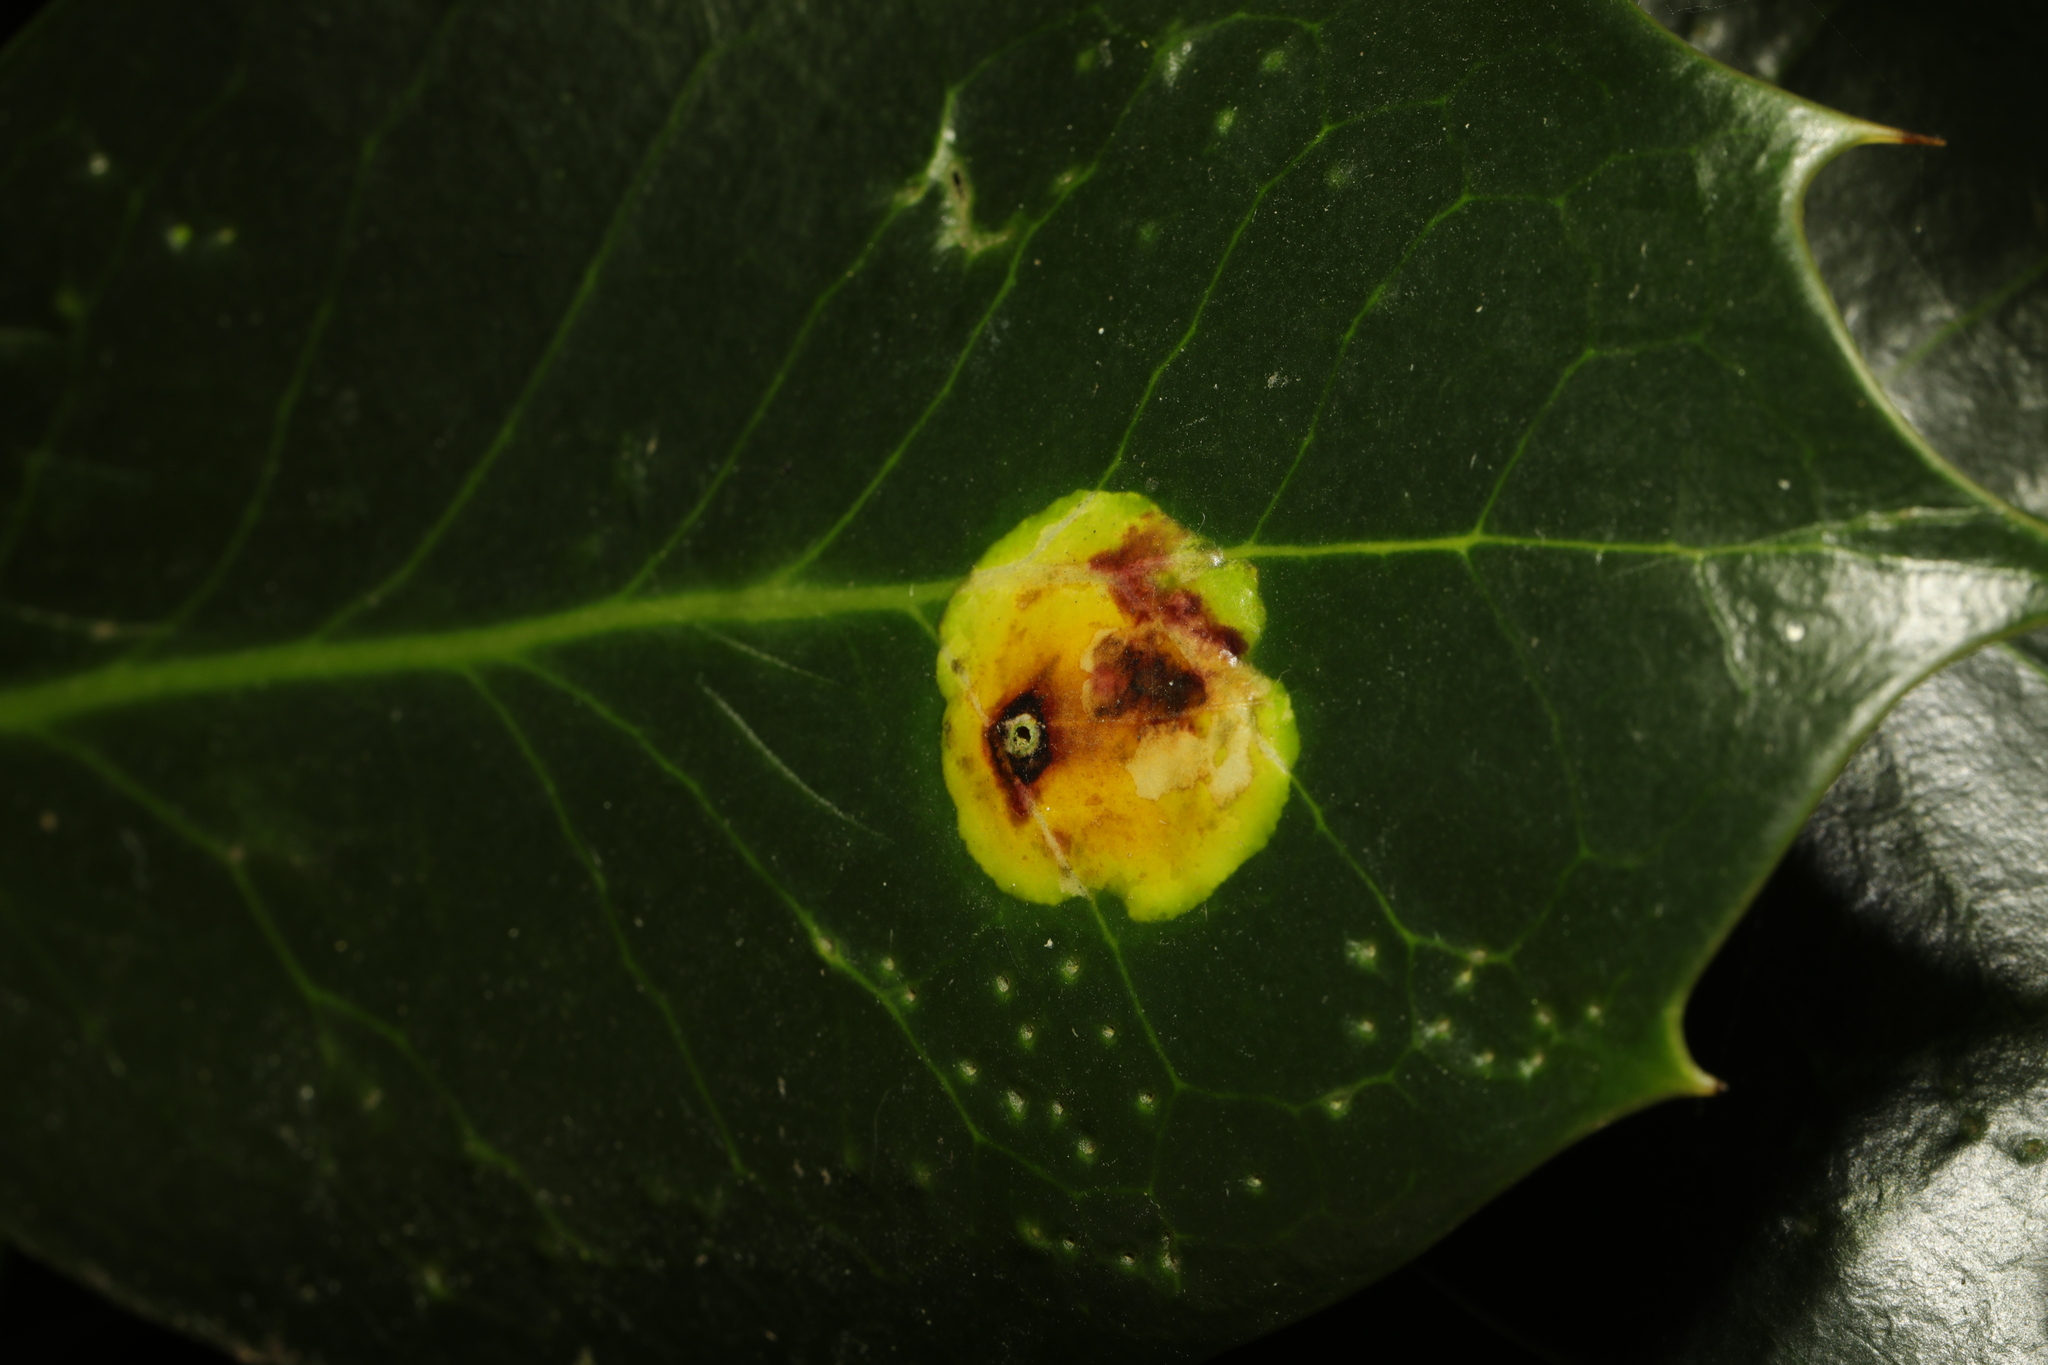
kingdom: Animalia
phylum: Arthropoda
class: Insecta
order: Diptera
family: Agromyzidae
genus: Phytomyza
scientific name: Phytomyza ilicis
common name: Holly leafminer
